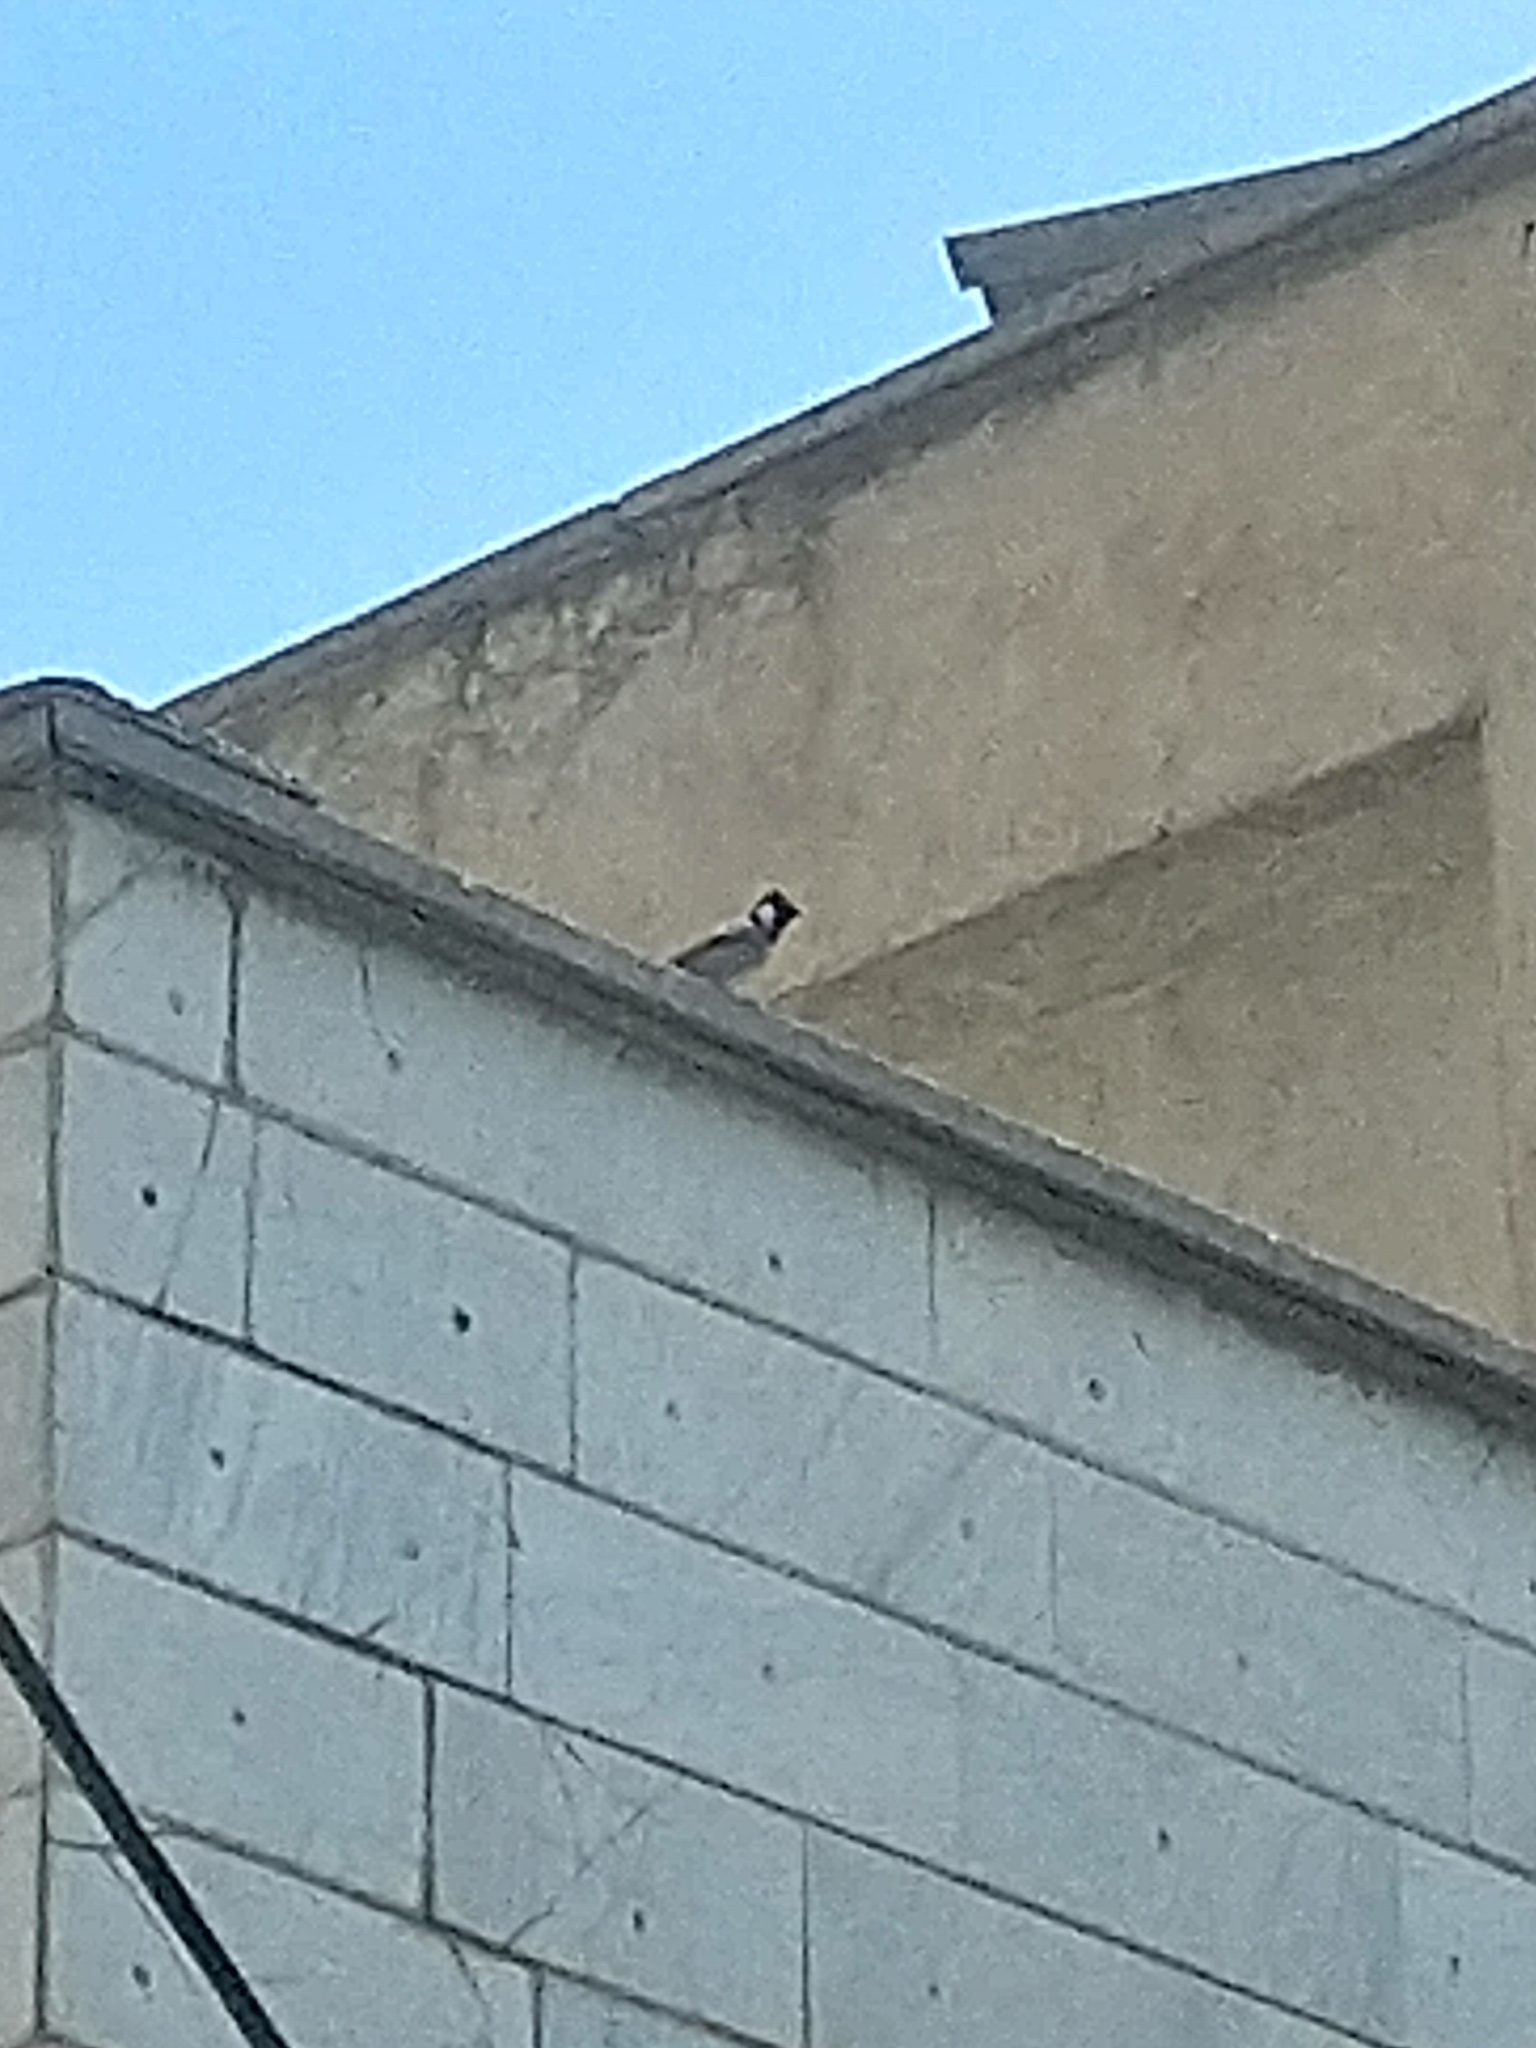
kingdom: Animalia
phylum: Chordata
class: Aves
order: Passeriformes
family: Pycnonotidae
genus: Pycnonotus
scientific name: Pycnonotus leucotis
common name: White-eared bulbul
